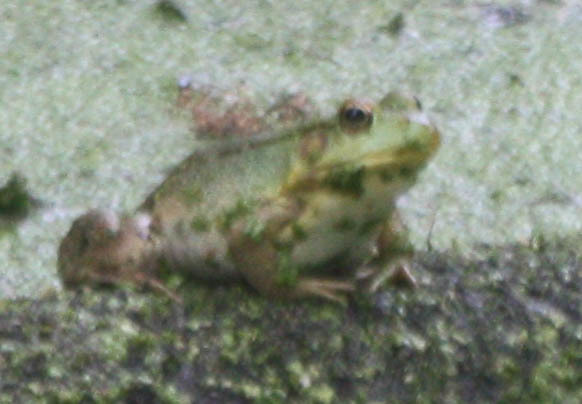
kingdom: Animalia
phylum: Chordata
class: Amphibia
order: Anura
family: Ranidae
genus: Lithobates
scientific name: Lithobates clamitans
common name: Green frog
